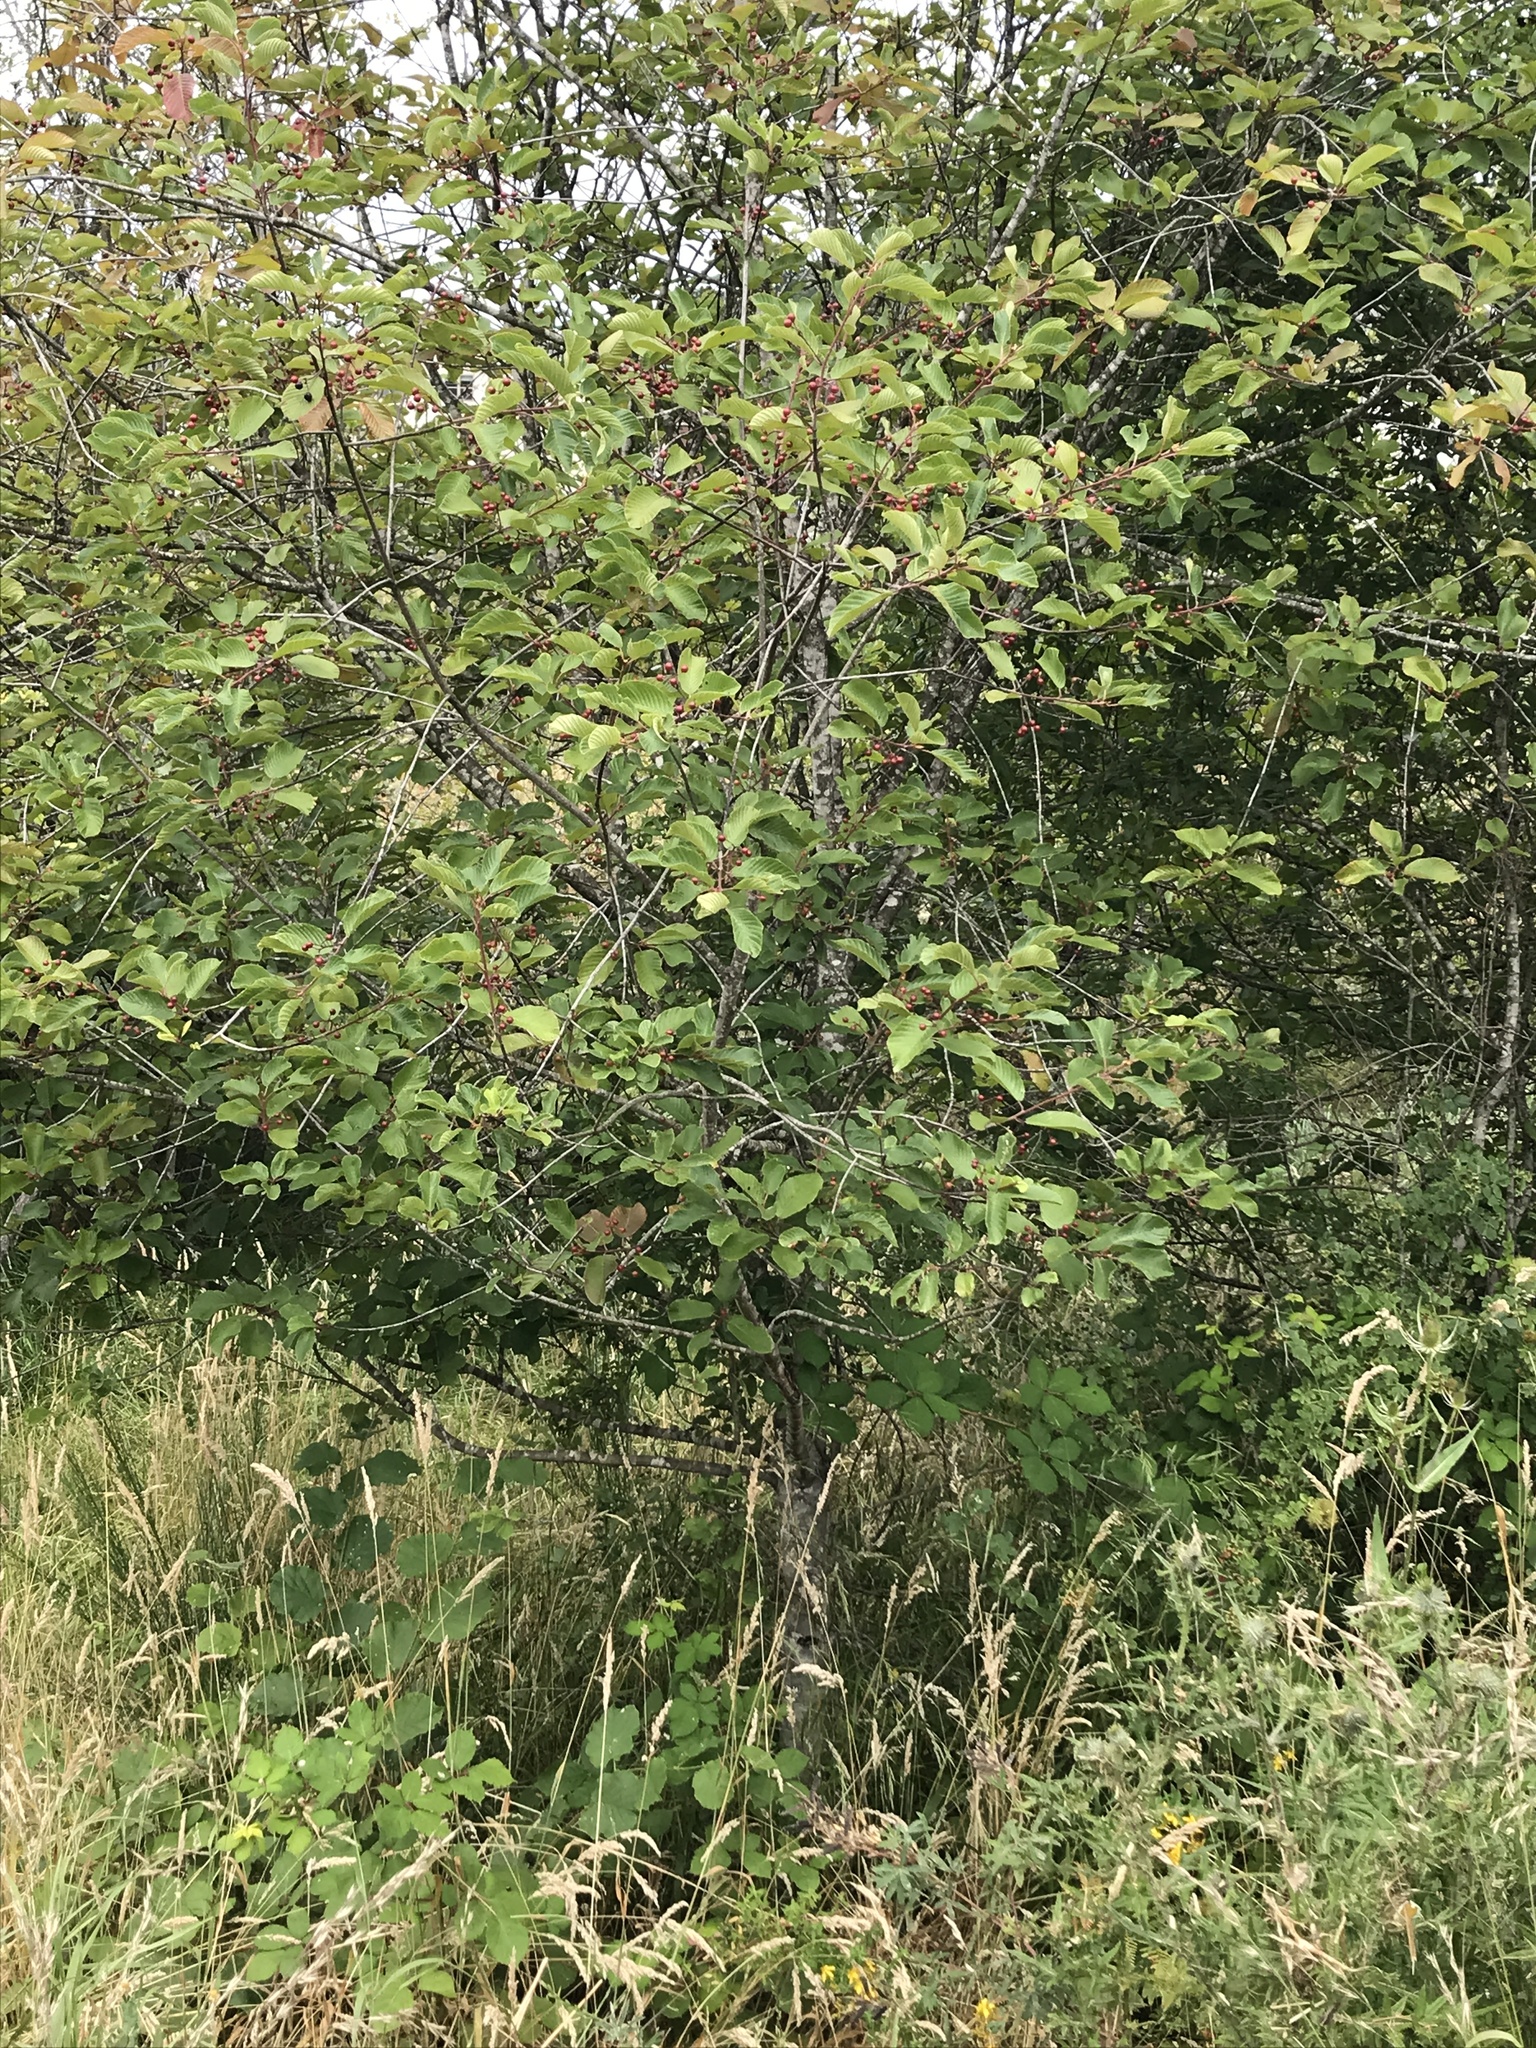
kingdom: Plantae
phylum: Tracheophyta
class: Magnoliopsida
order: Rosales
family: Rhamnaceae
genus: Frangula
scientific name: Frangula purshiana
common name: Cascara buckthorn
